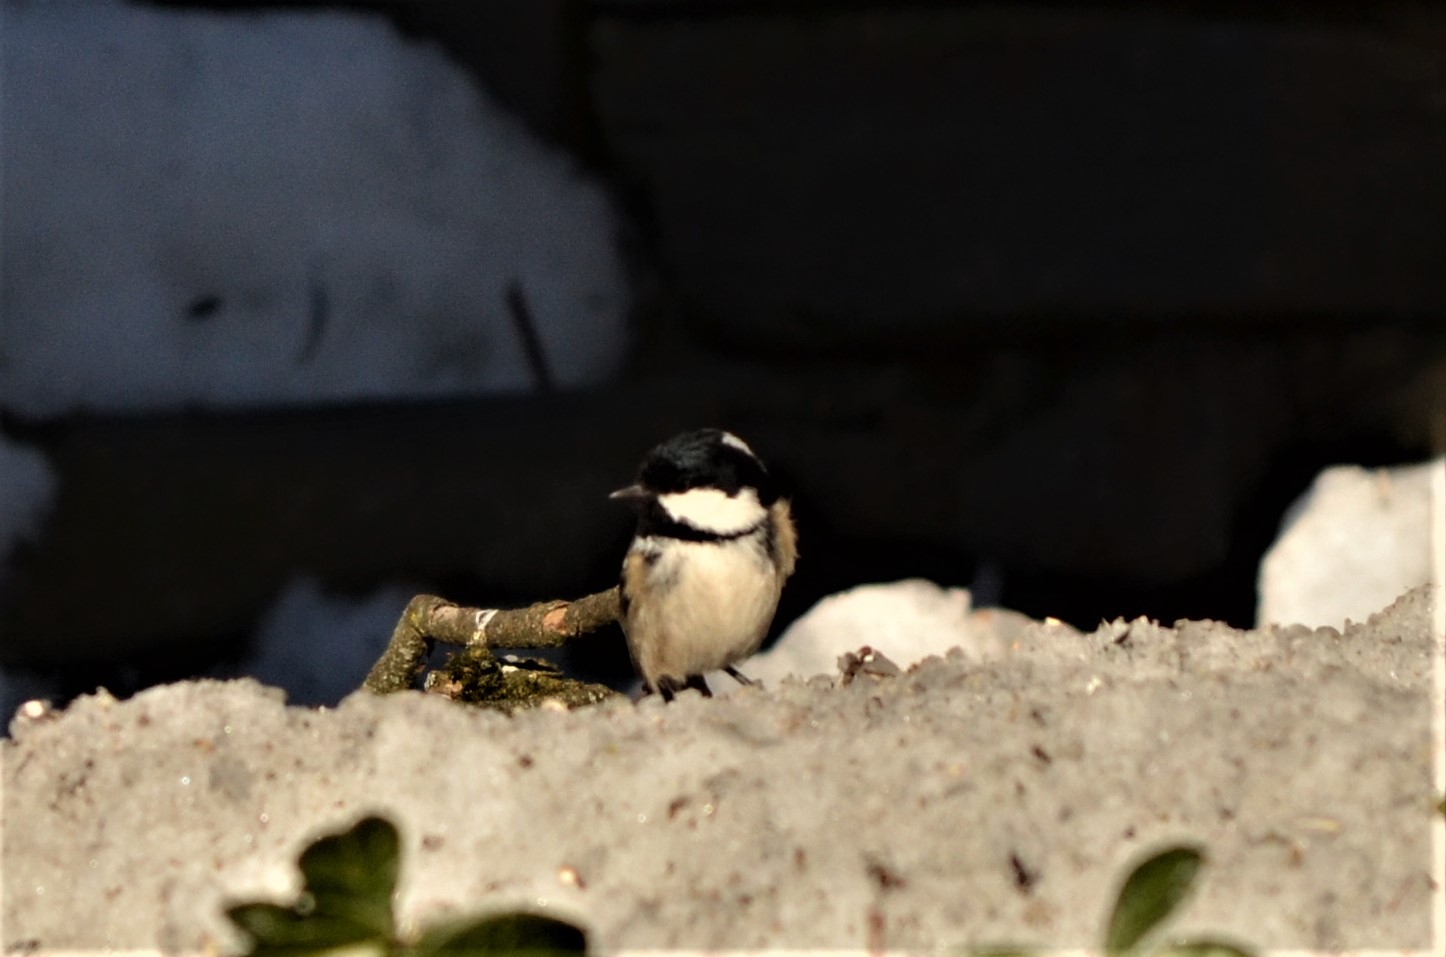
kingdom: Animalia
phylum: Chordata
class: Aves
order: Passeriformes
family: Paridae
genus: Periparus
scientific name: Periparus ater
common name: Coal tit
